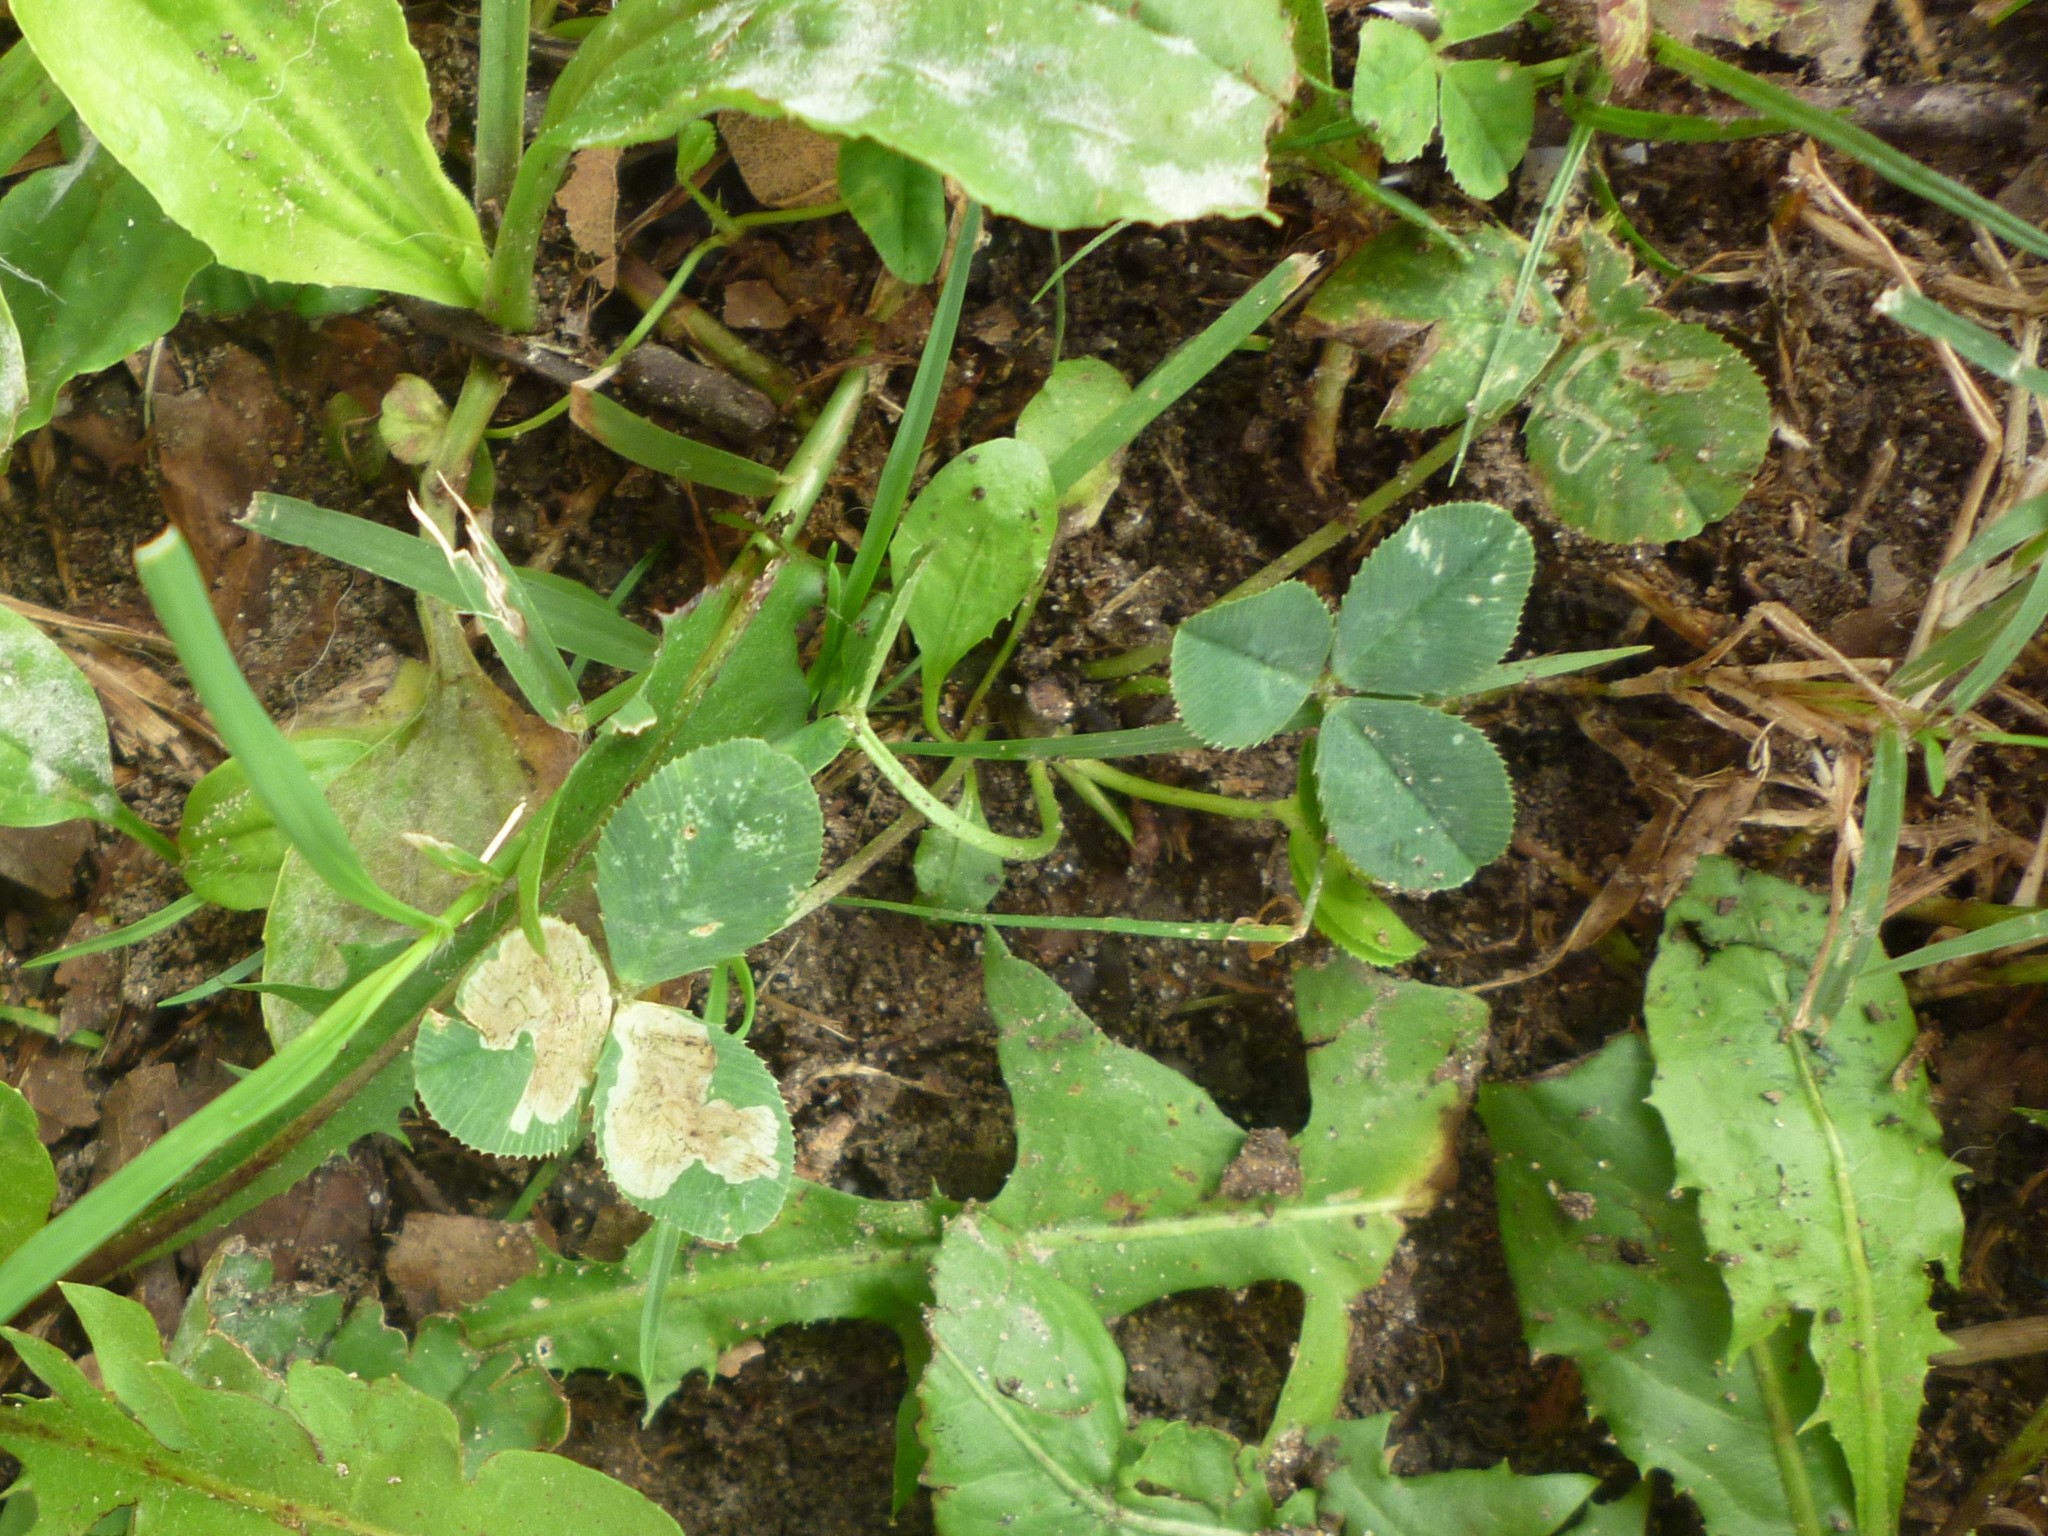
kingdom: Animalia
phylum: Arthropoda
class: Insecta
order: Diptera
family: Agromyzidae
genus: Liriomyza
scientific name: Liriomyza fricki
